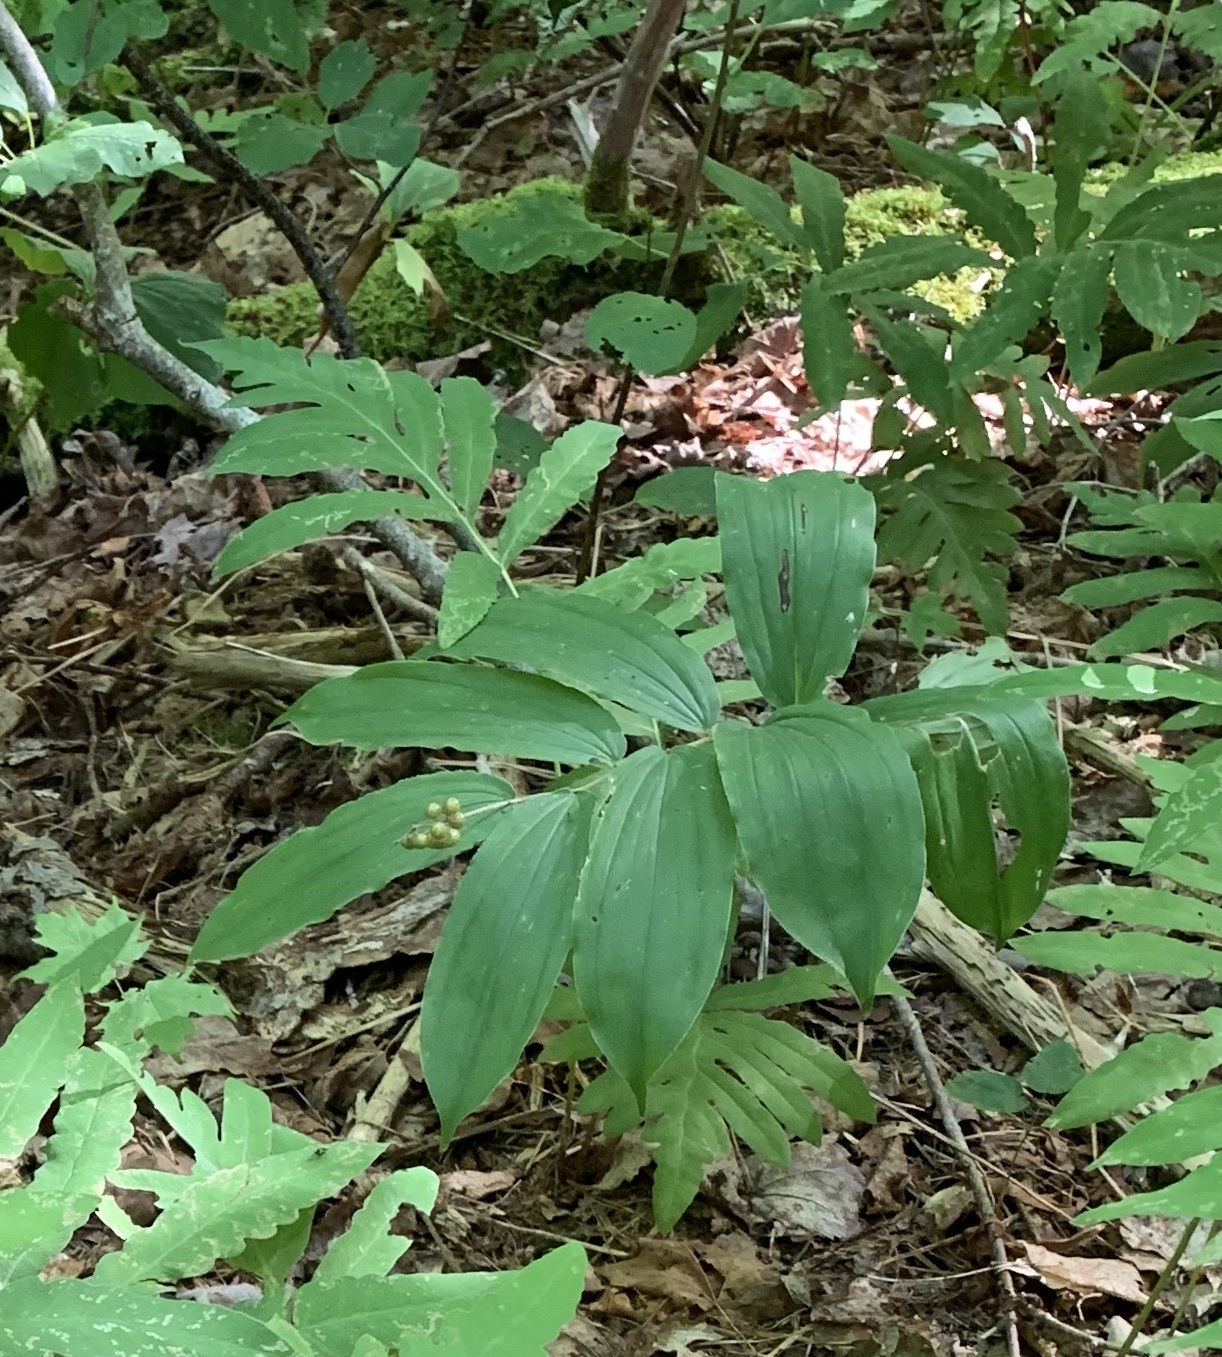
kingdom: Plantae
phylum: Tracheophyta
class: Liliopsida
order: Asparagales
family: Asparagaceae
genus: Maianthemum
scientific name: Maianthemum racemosum
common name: False spikenard
